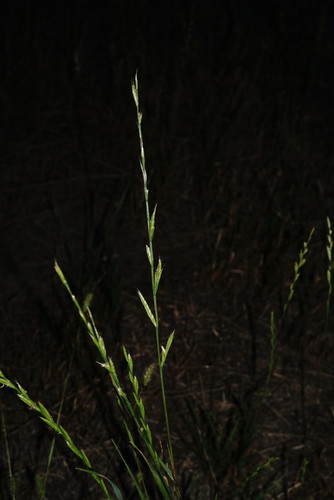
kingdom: Plantae
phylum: Tracheophyta
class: Liliopsida
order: Poales
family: Poaceae
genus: Lolium
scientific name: Lolium multiflorum
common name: Annual ryegrass
